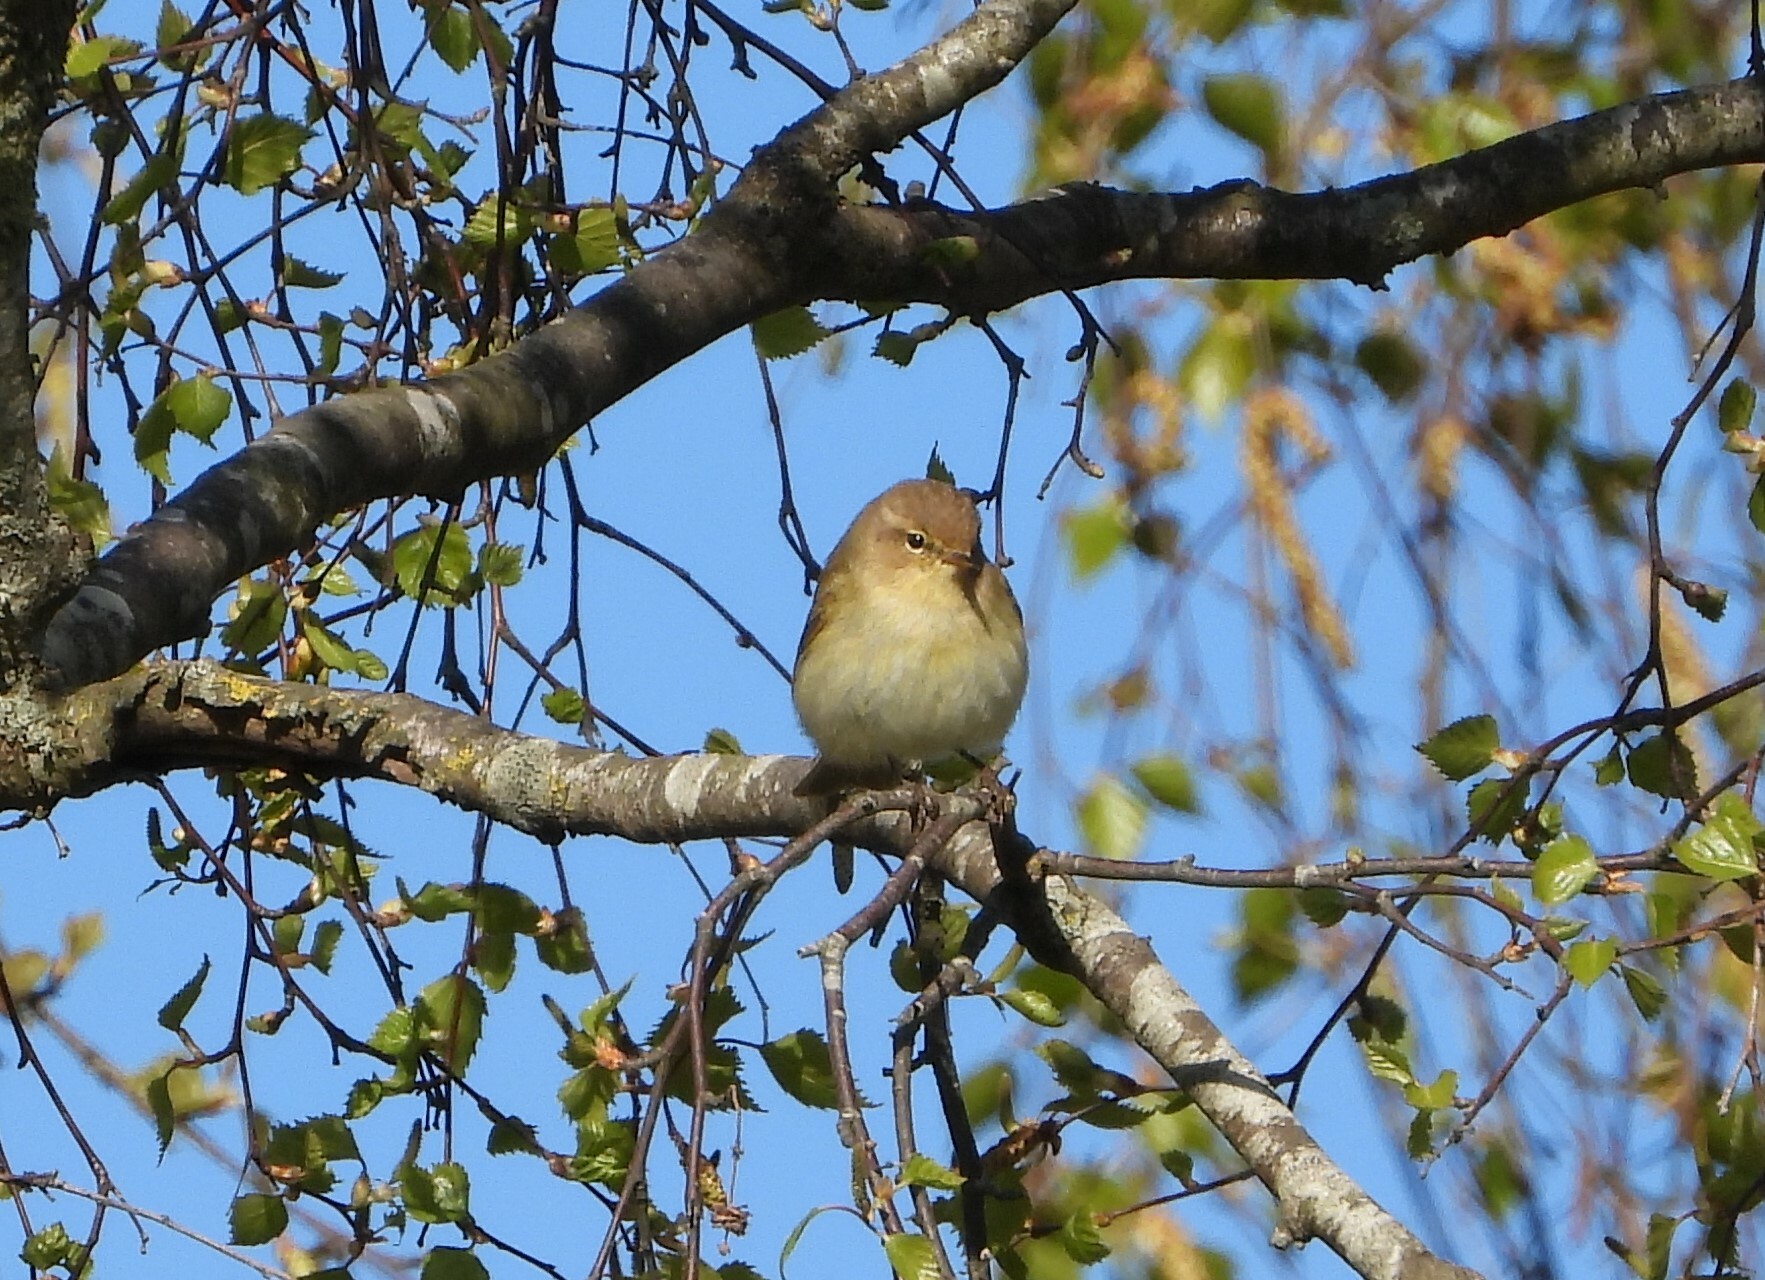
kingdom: Animalia
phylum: Chordata
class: Aves
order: Passeriformes
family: Phylloscopidae
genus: Phylloscopus
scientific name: Phylloscopus collybita
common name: Common chiffchaff
